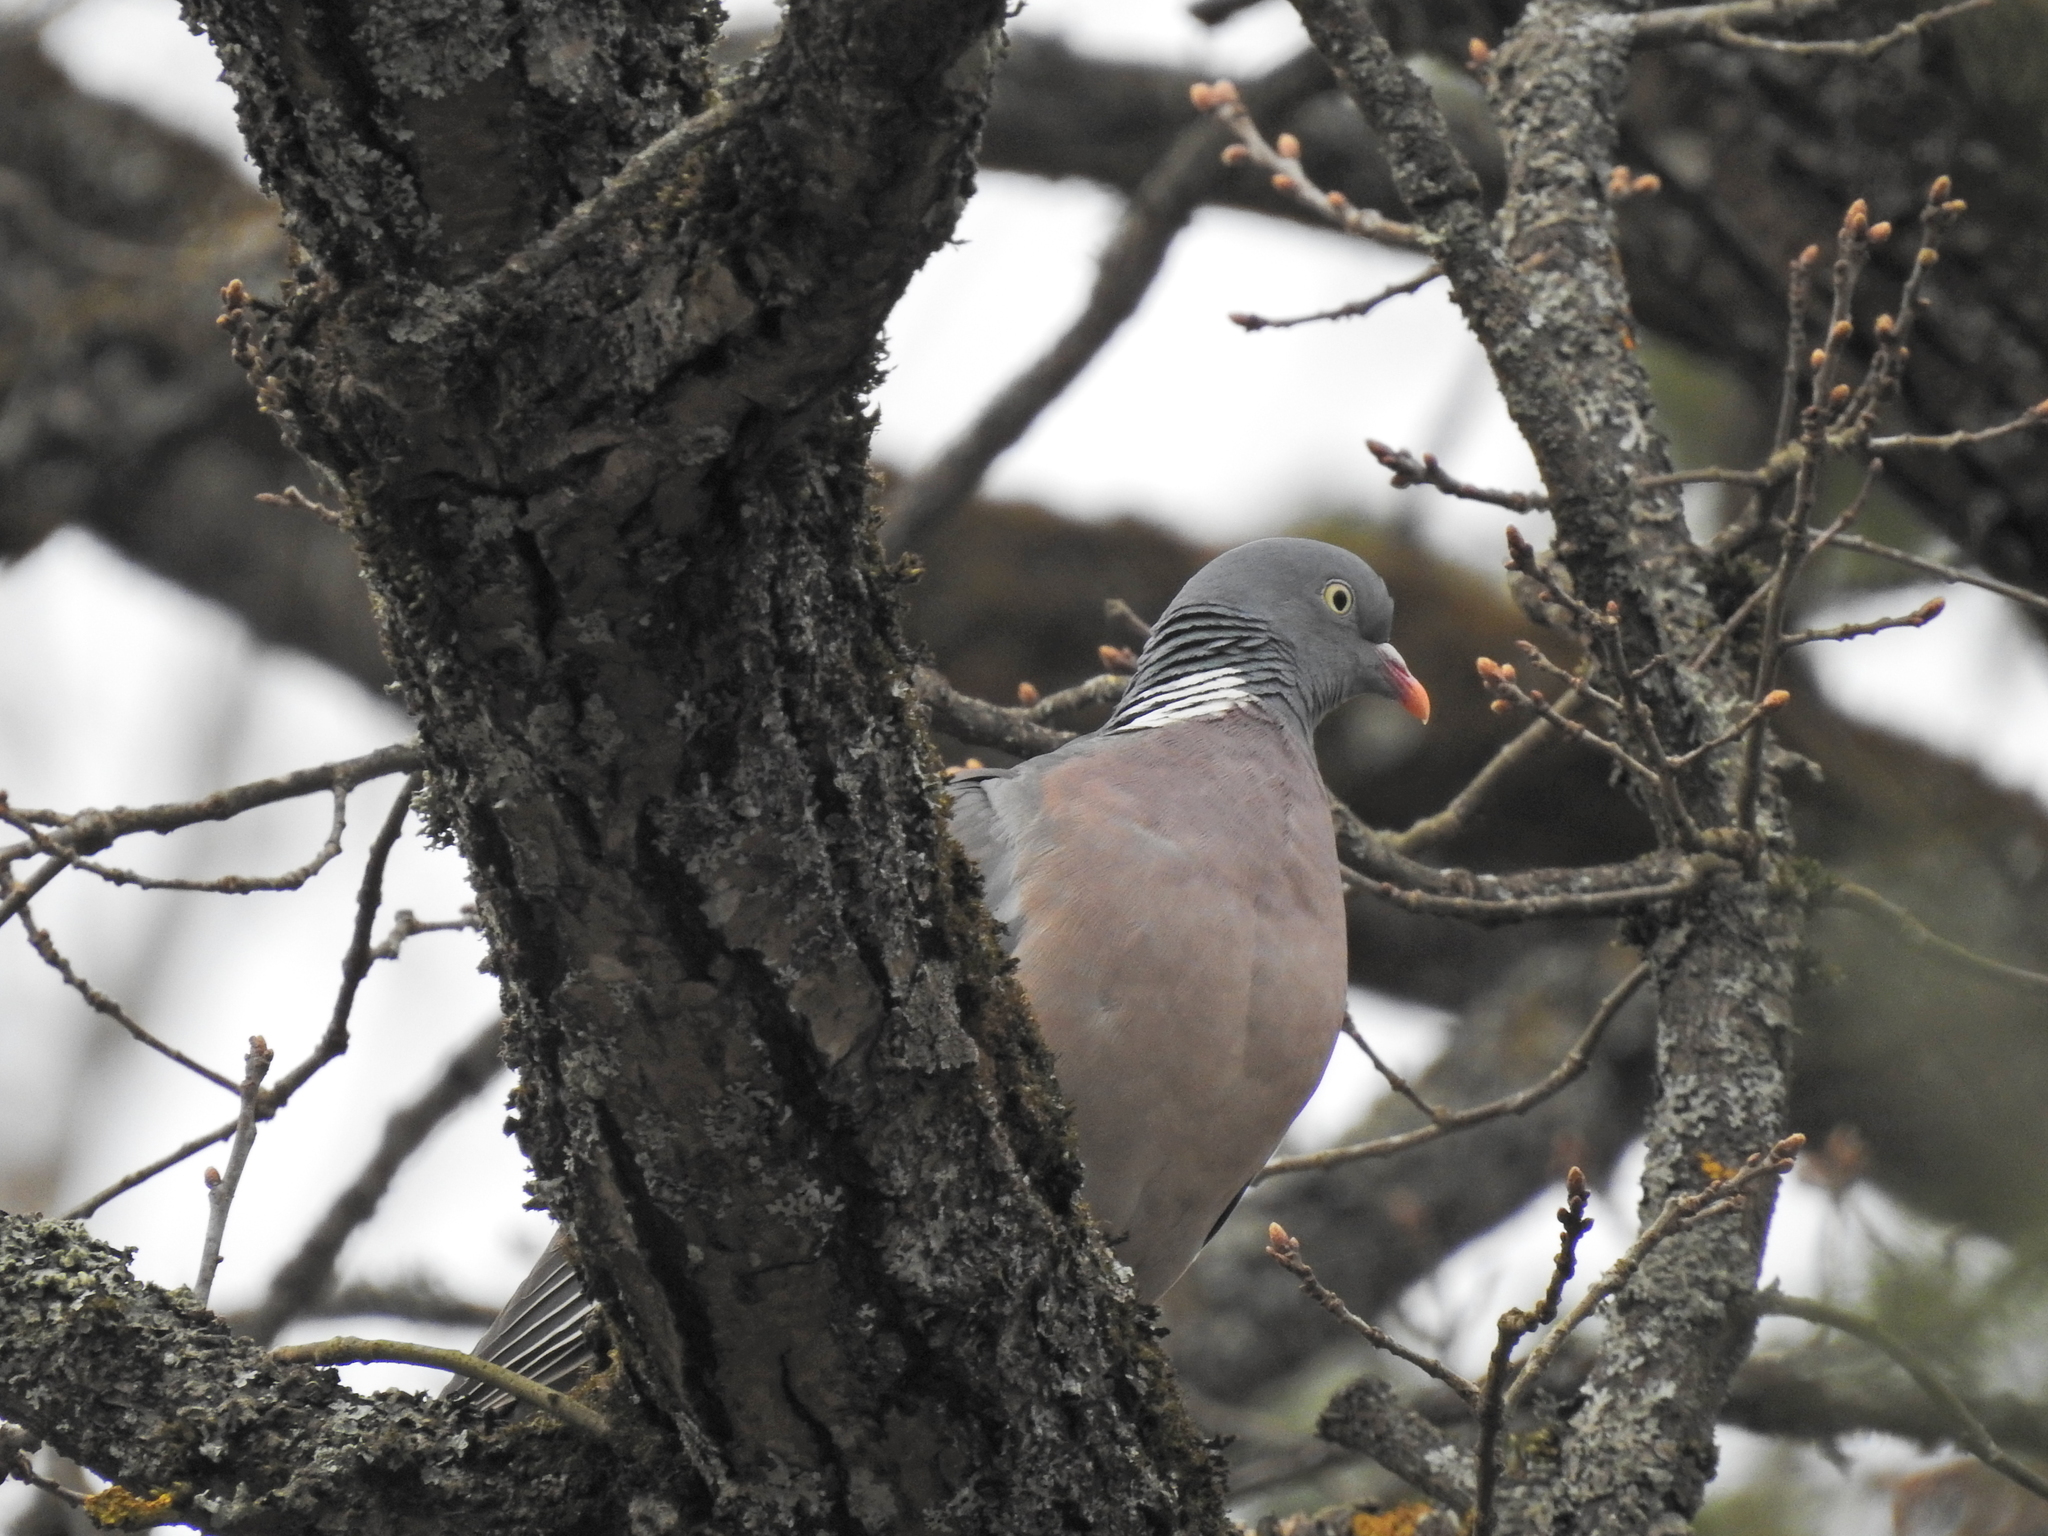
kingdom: Animalia
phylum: Chordata
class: Aves
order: Columbiformes
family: Columbidae
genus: Columba
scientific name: Columba palumbus
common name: Common wood pigeon
